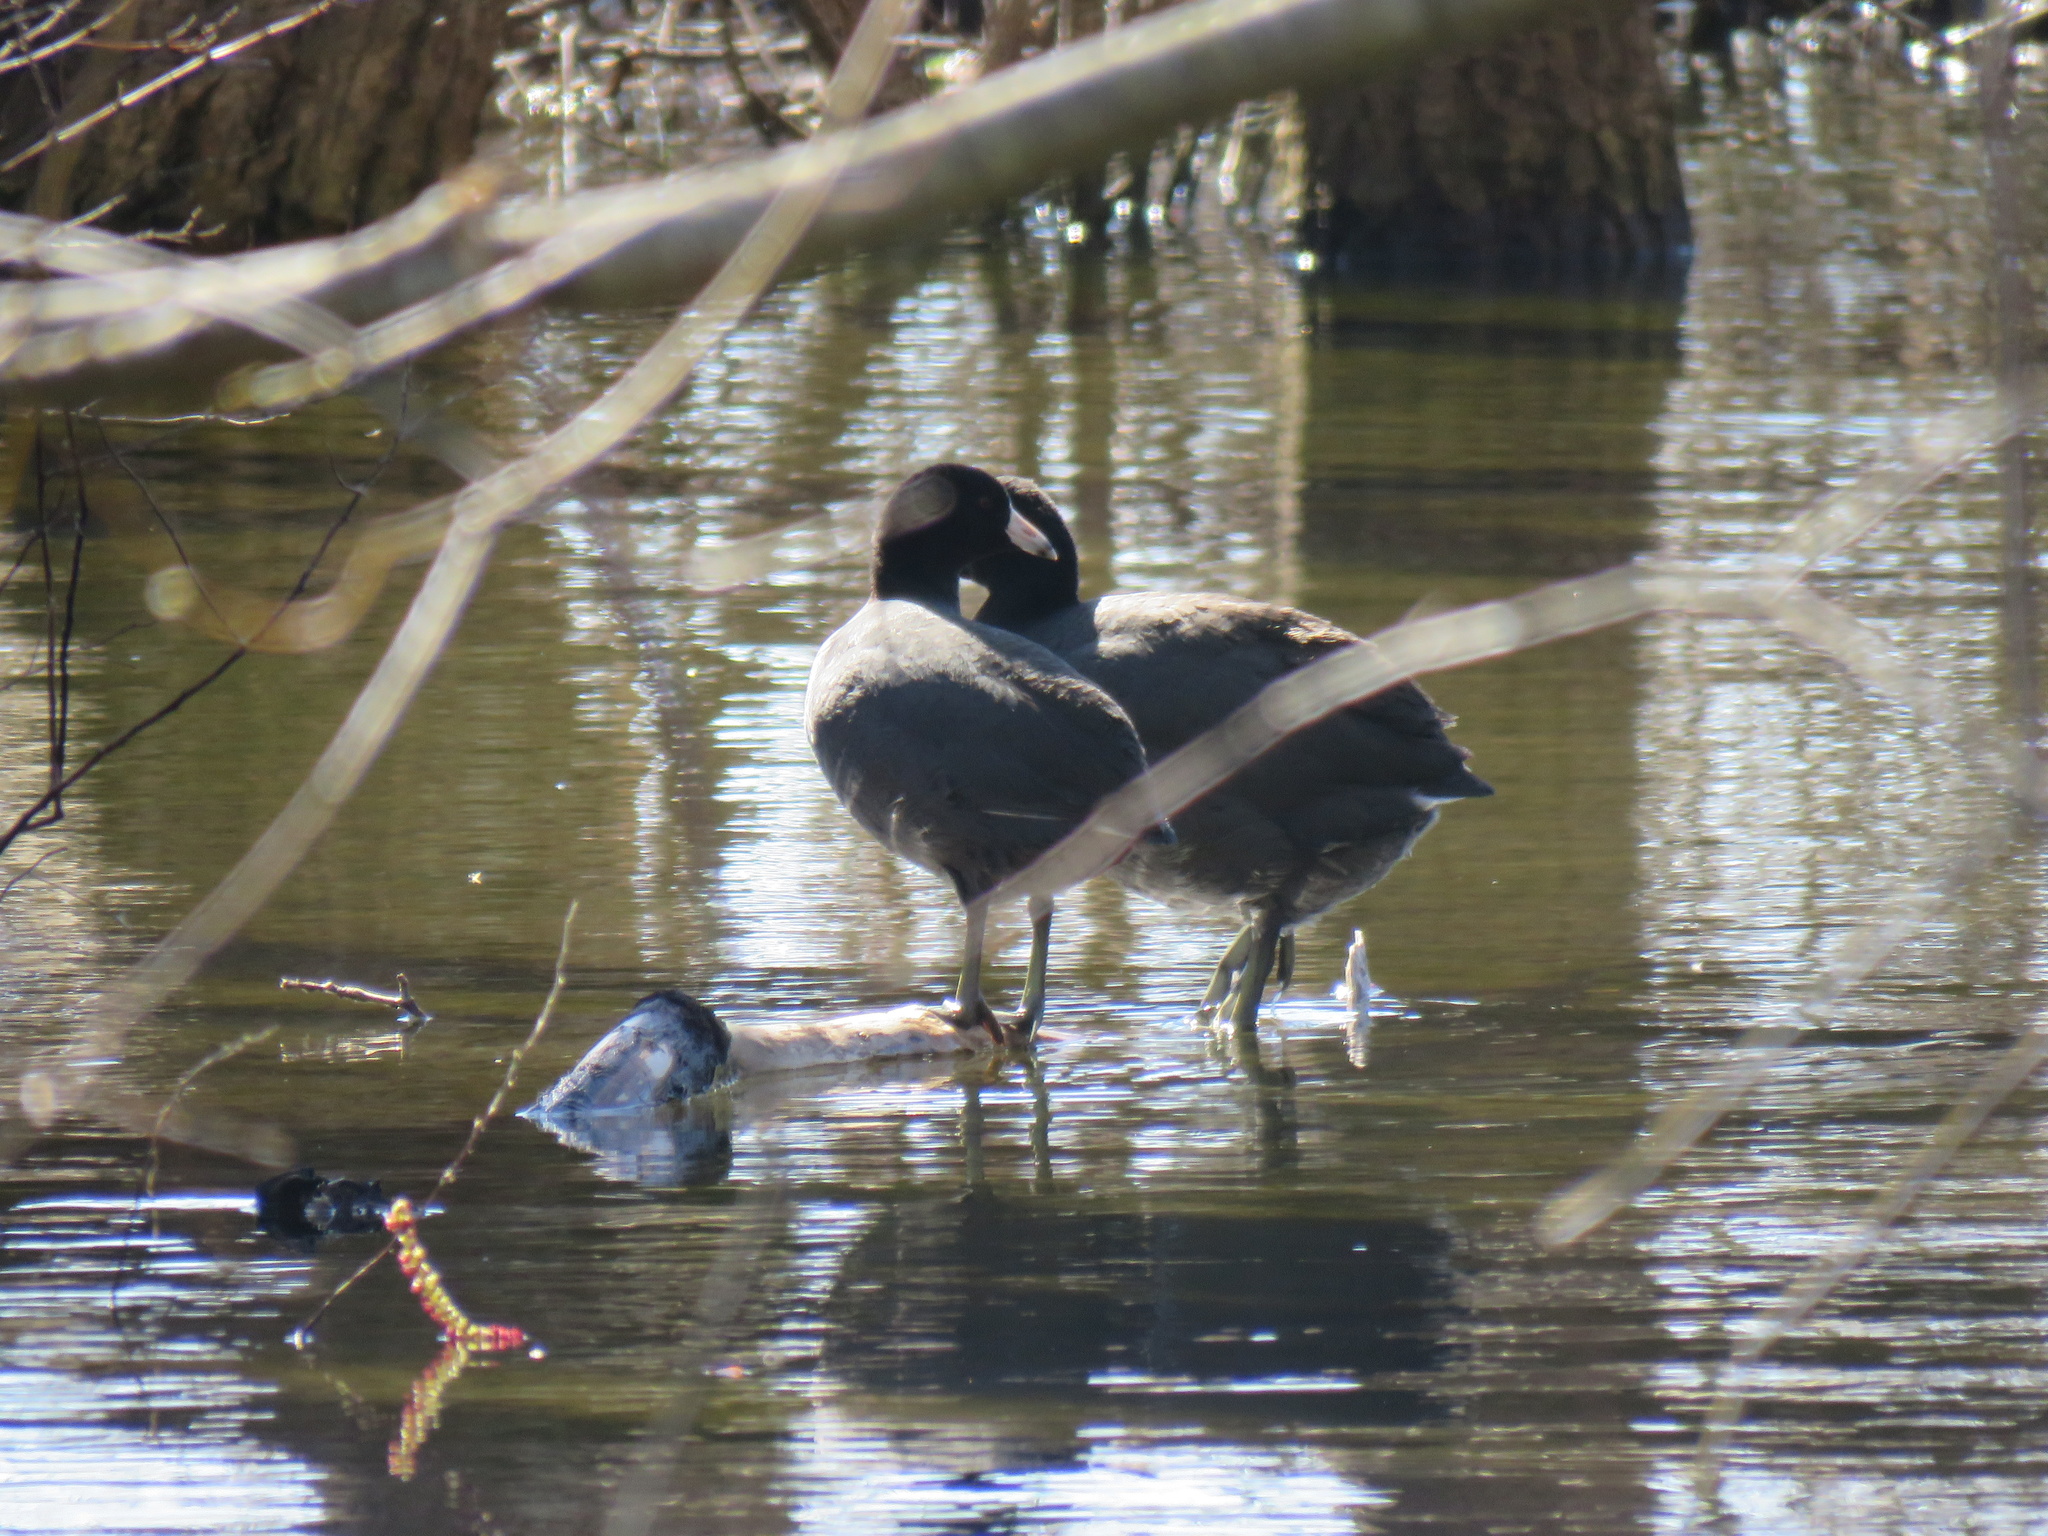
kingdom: Animalia
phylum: Chordata
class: Aves
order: Gruiformes
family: Rallidae
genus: Fulica
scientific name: Fulica americana
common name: American coot
